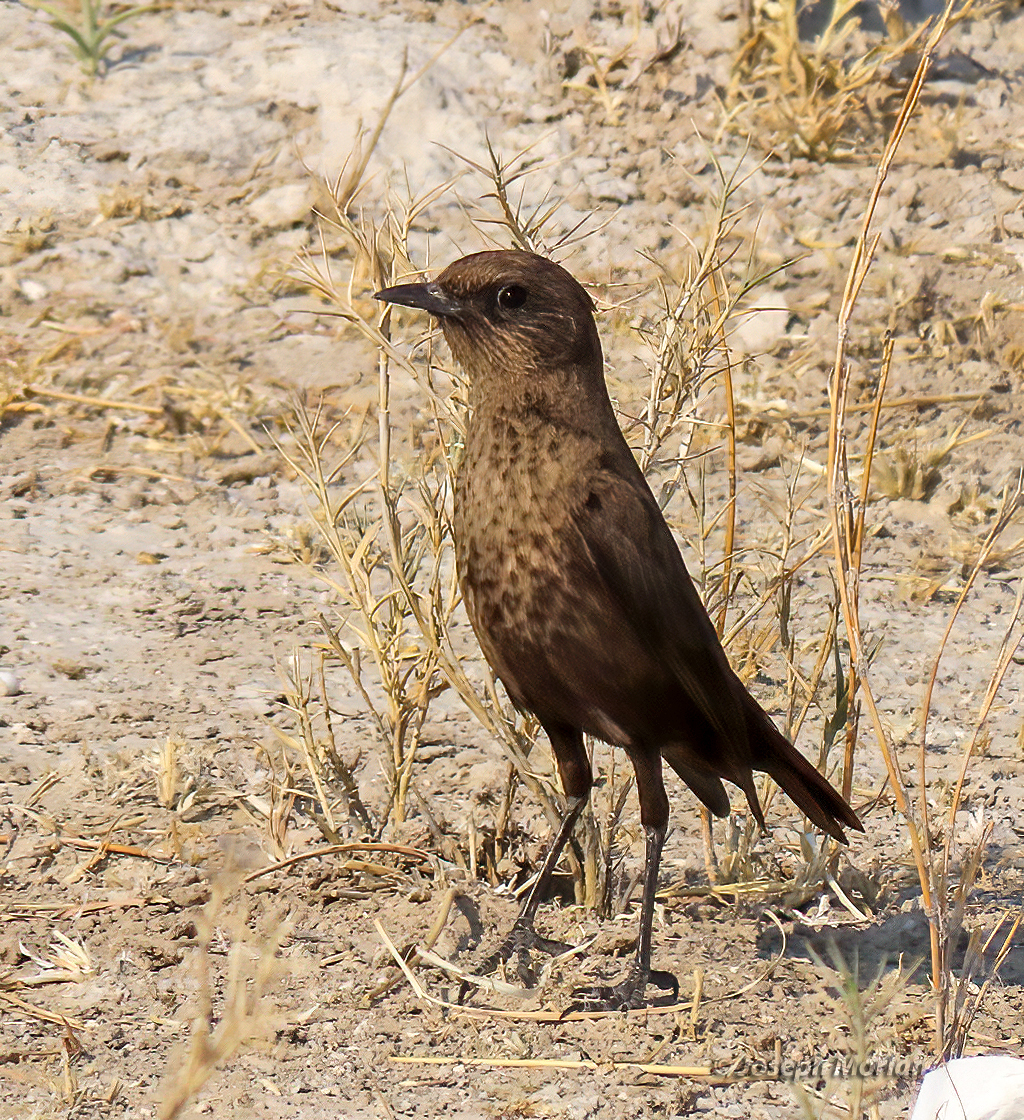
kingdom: Animalia
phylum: Chordata
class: Aves
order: Passeriformes
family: Muscicapidae
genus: Myrmecocichla
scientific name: Myrmecocichla formicivora
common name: Ant-eating chat
